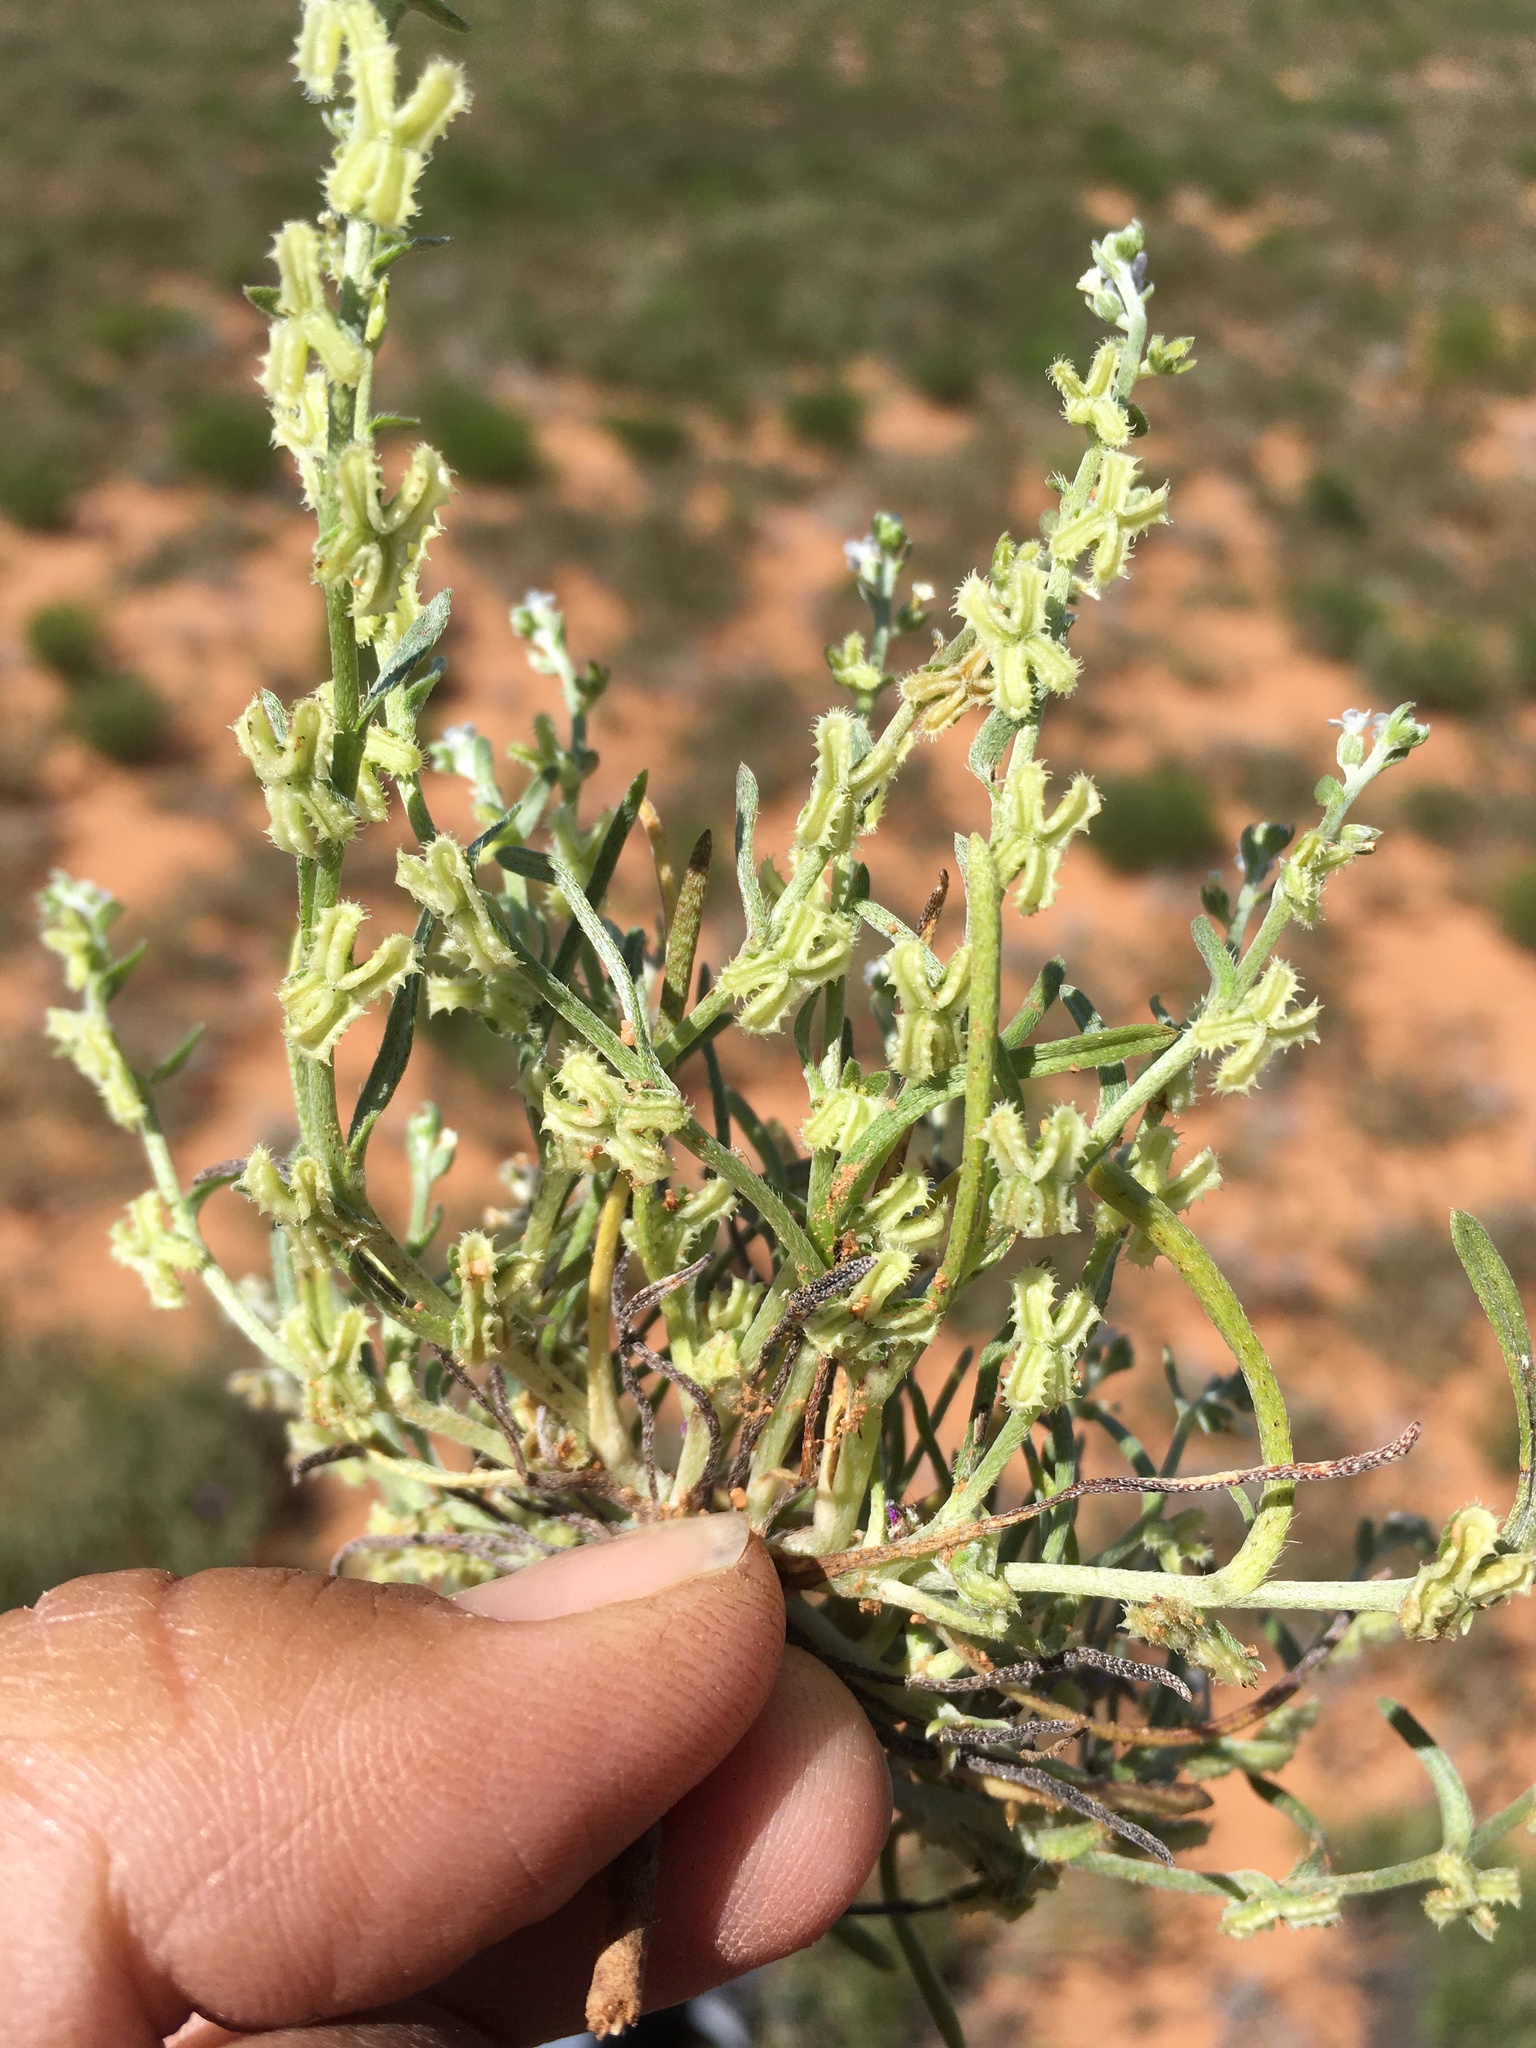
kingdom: Plantae
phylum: Tracheophyta
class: Magnoliopsida
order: Boraginales
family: Boraginaceae
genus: Pectocarya
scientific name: Pectocarya platycarpa
